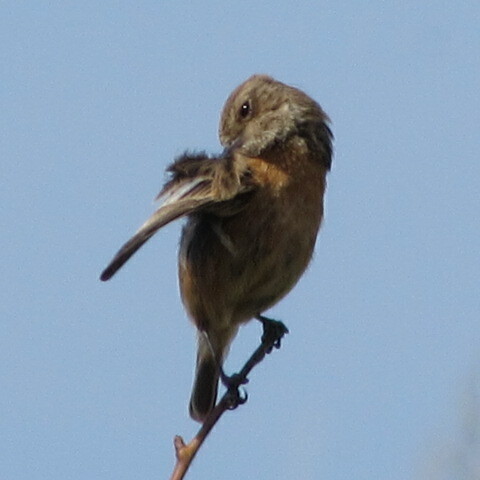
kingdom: Animalia
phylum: Chordata
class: Aves
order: Passeriformes
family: Muscicapidae
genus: Saxicola
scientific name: Saxicola rubicola
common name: European stonechat
